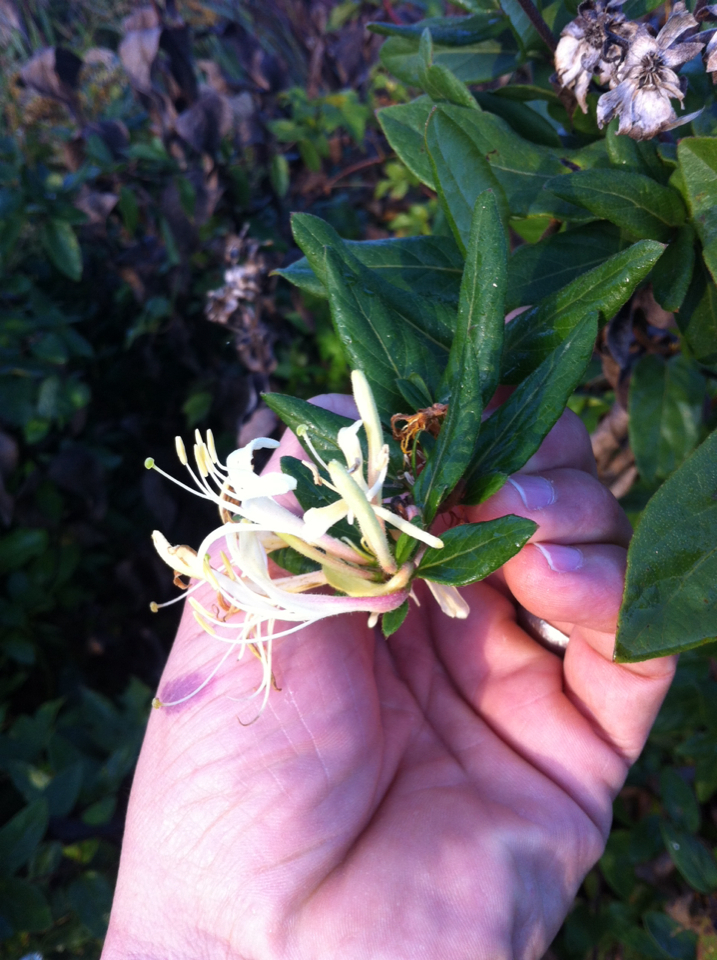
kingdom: Plantae
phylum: Tracheophyta
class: Magnoliopsida
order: Dipsacales
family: Caprifoliaceae
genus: Lonicera
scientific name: Lonicera japonica
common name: Japanese honeysuckle
